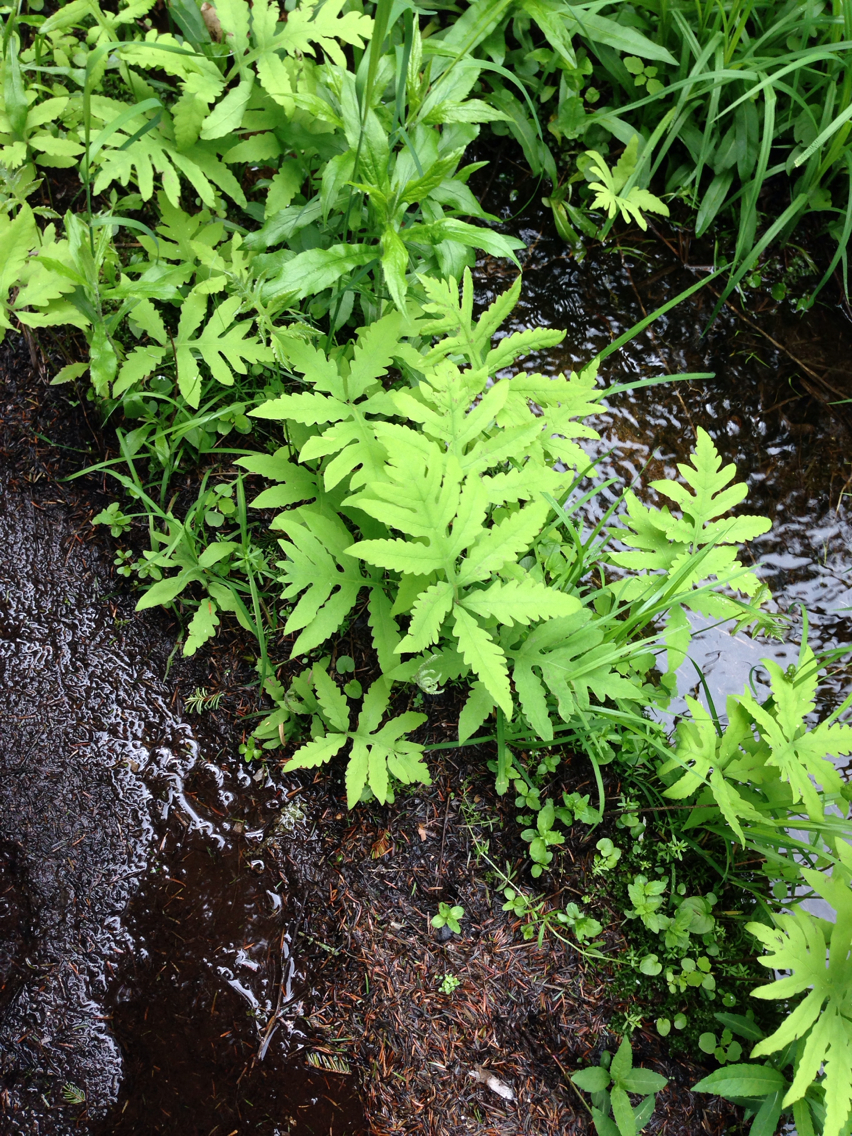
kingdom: Plantae
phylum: Tracheophyta
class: Polypodiopsida
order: Polypodiales
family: Onocleaceae
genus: Onoclea
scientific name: Onoclea sensibilis
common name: Sensitive fern
